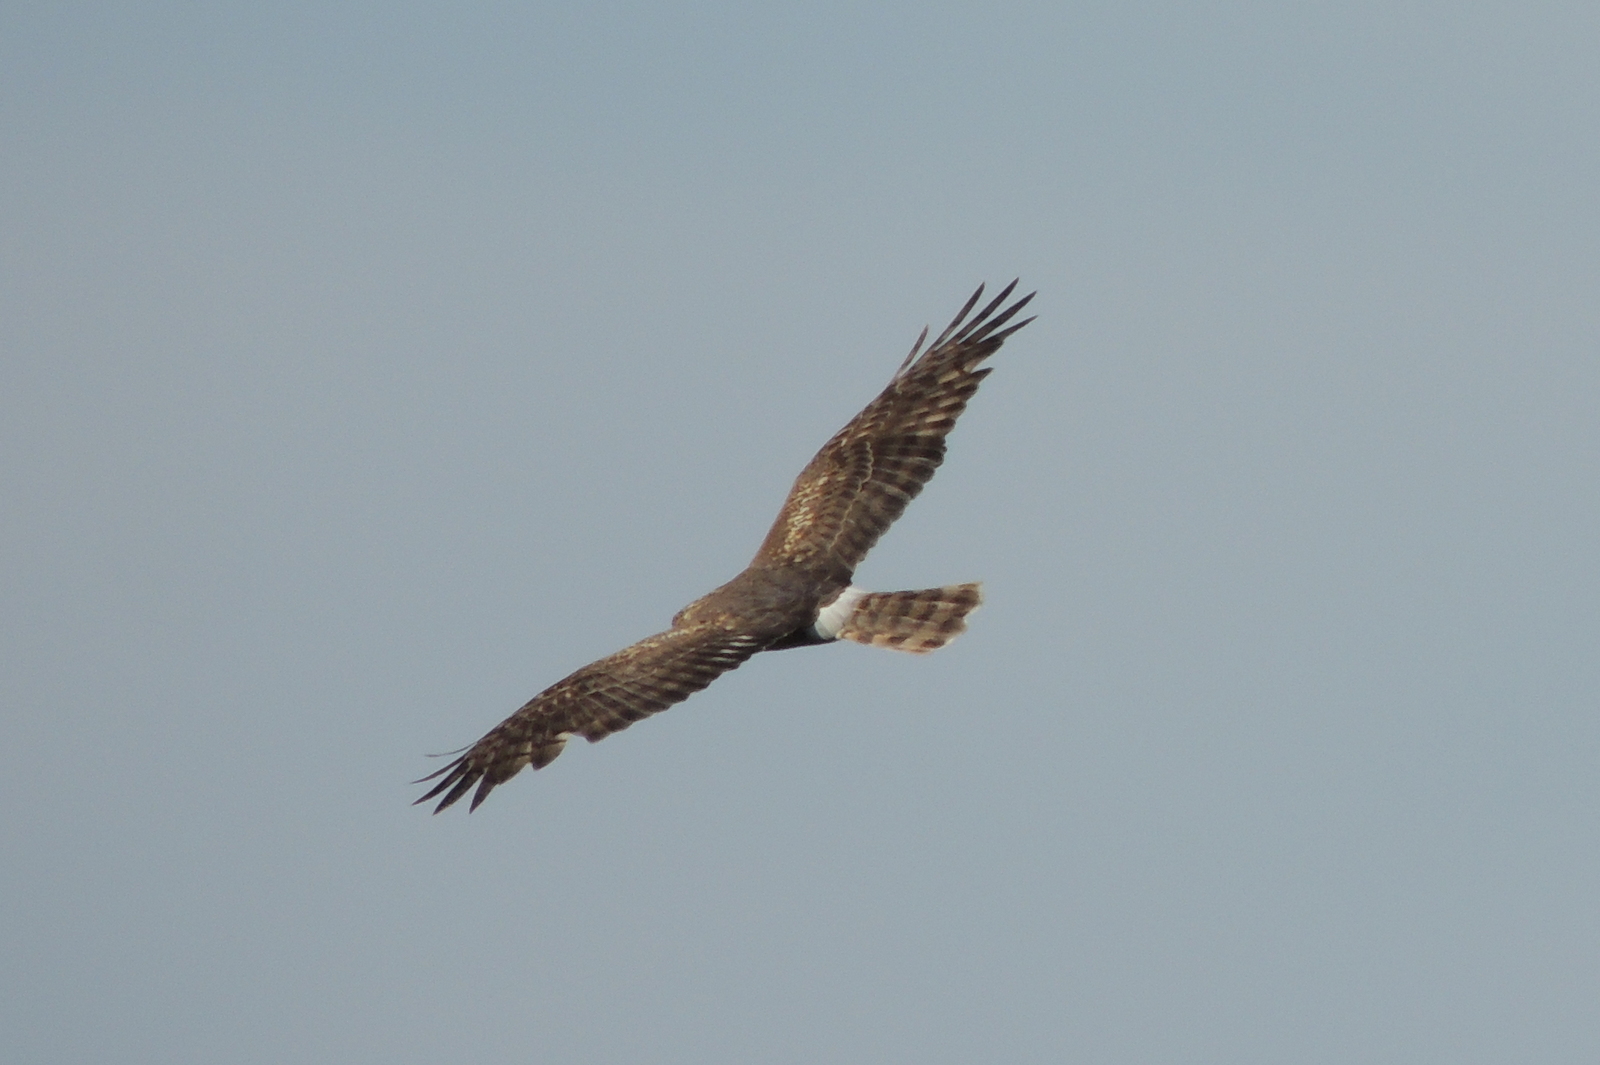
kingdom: Animalia
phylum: Chordata
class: Aves
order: Accipitriformes
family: Accipitridae
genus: Circus
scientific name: Circus cyaneus
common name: Hen harrier
